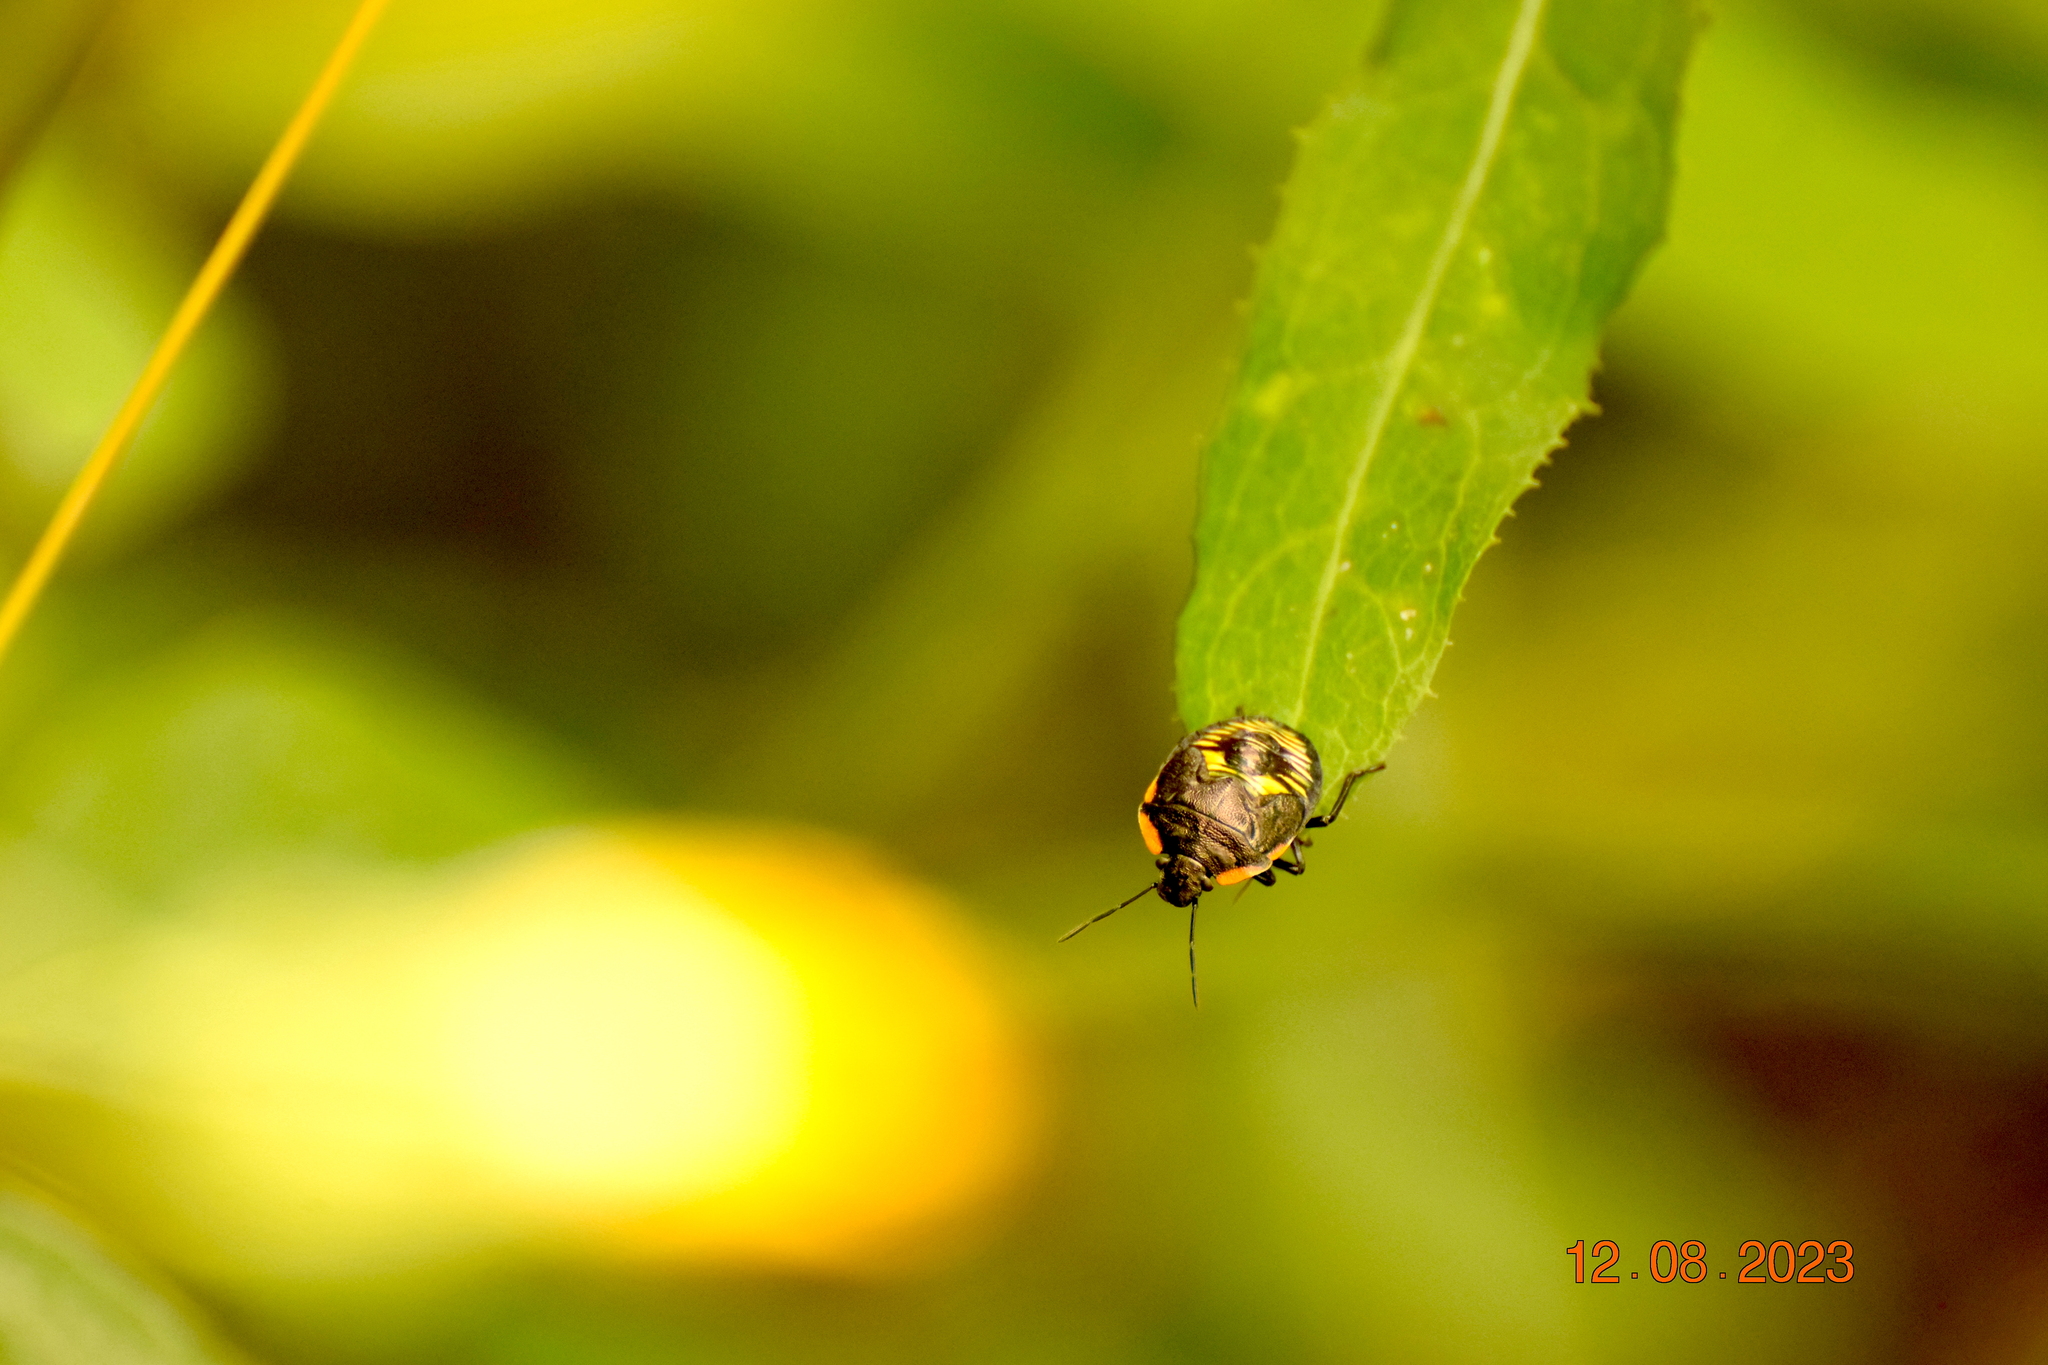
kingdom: Animalia
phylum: Arthropoda
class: Insecta
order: Hemiptera
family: Pentatomidae
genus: Chinavia
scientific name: Chinavia hilaris
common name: Green stink bug
